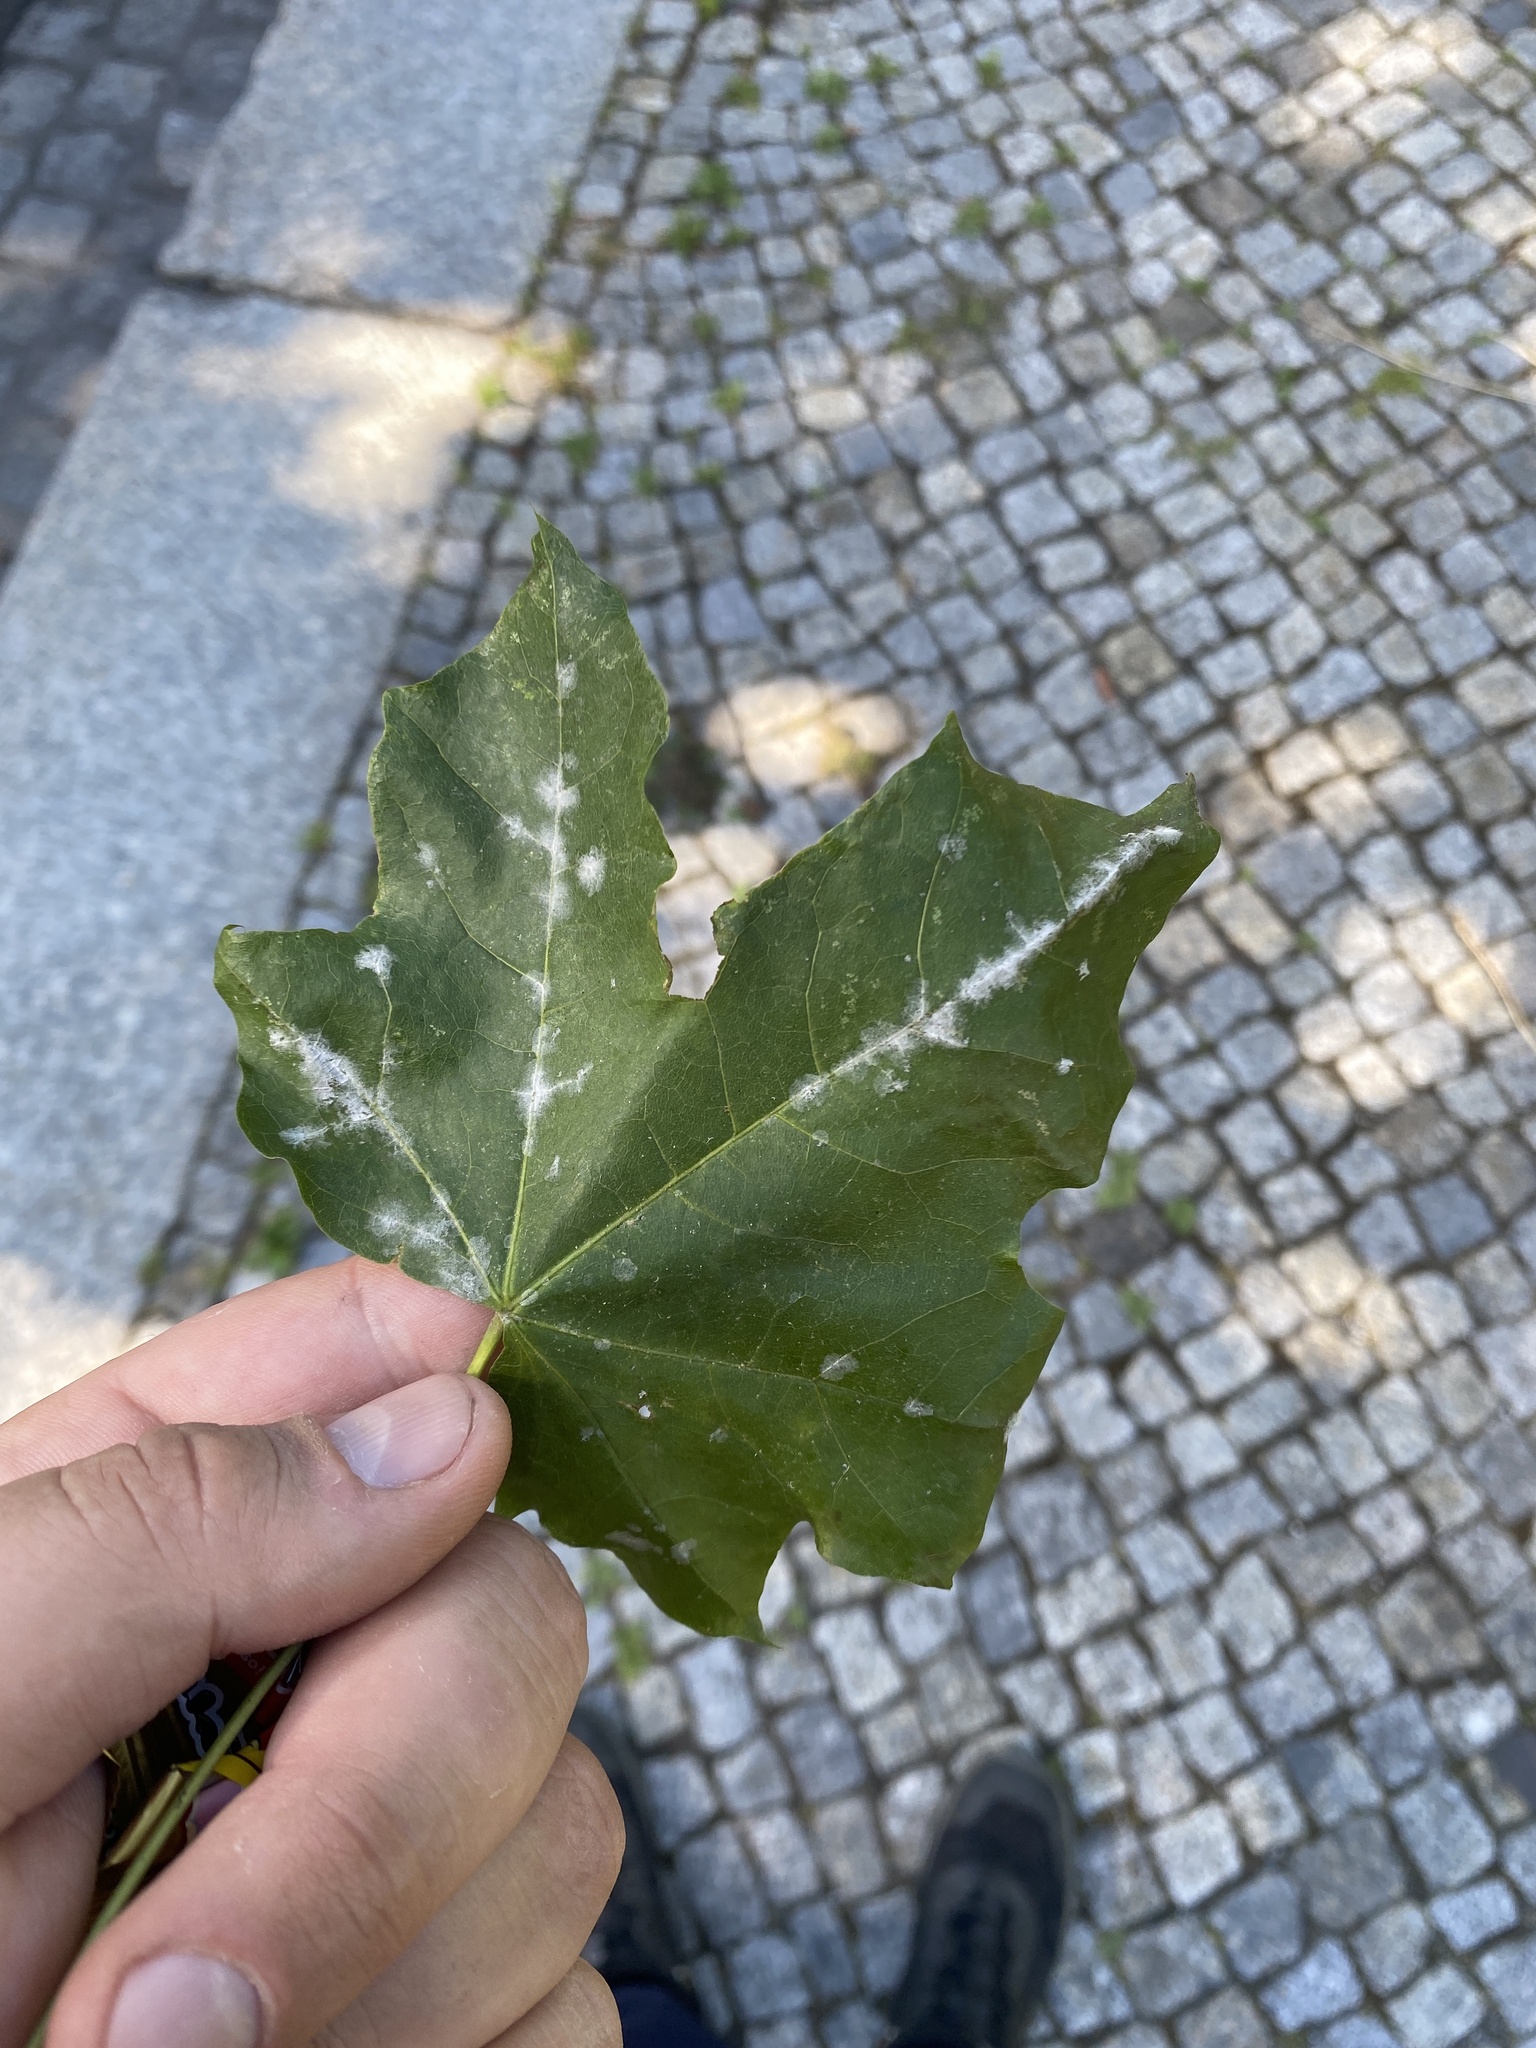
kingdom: Plantae
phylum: Tracheophyta
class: Magnoliopsida
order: Sapindales
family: Sapindaceae
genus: Acer
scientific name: Acer platanoides
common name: Norway maple
